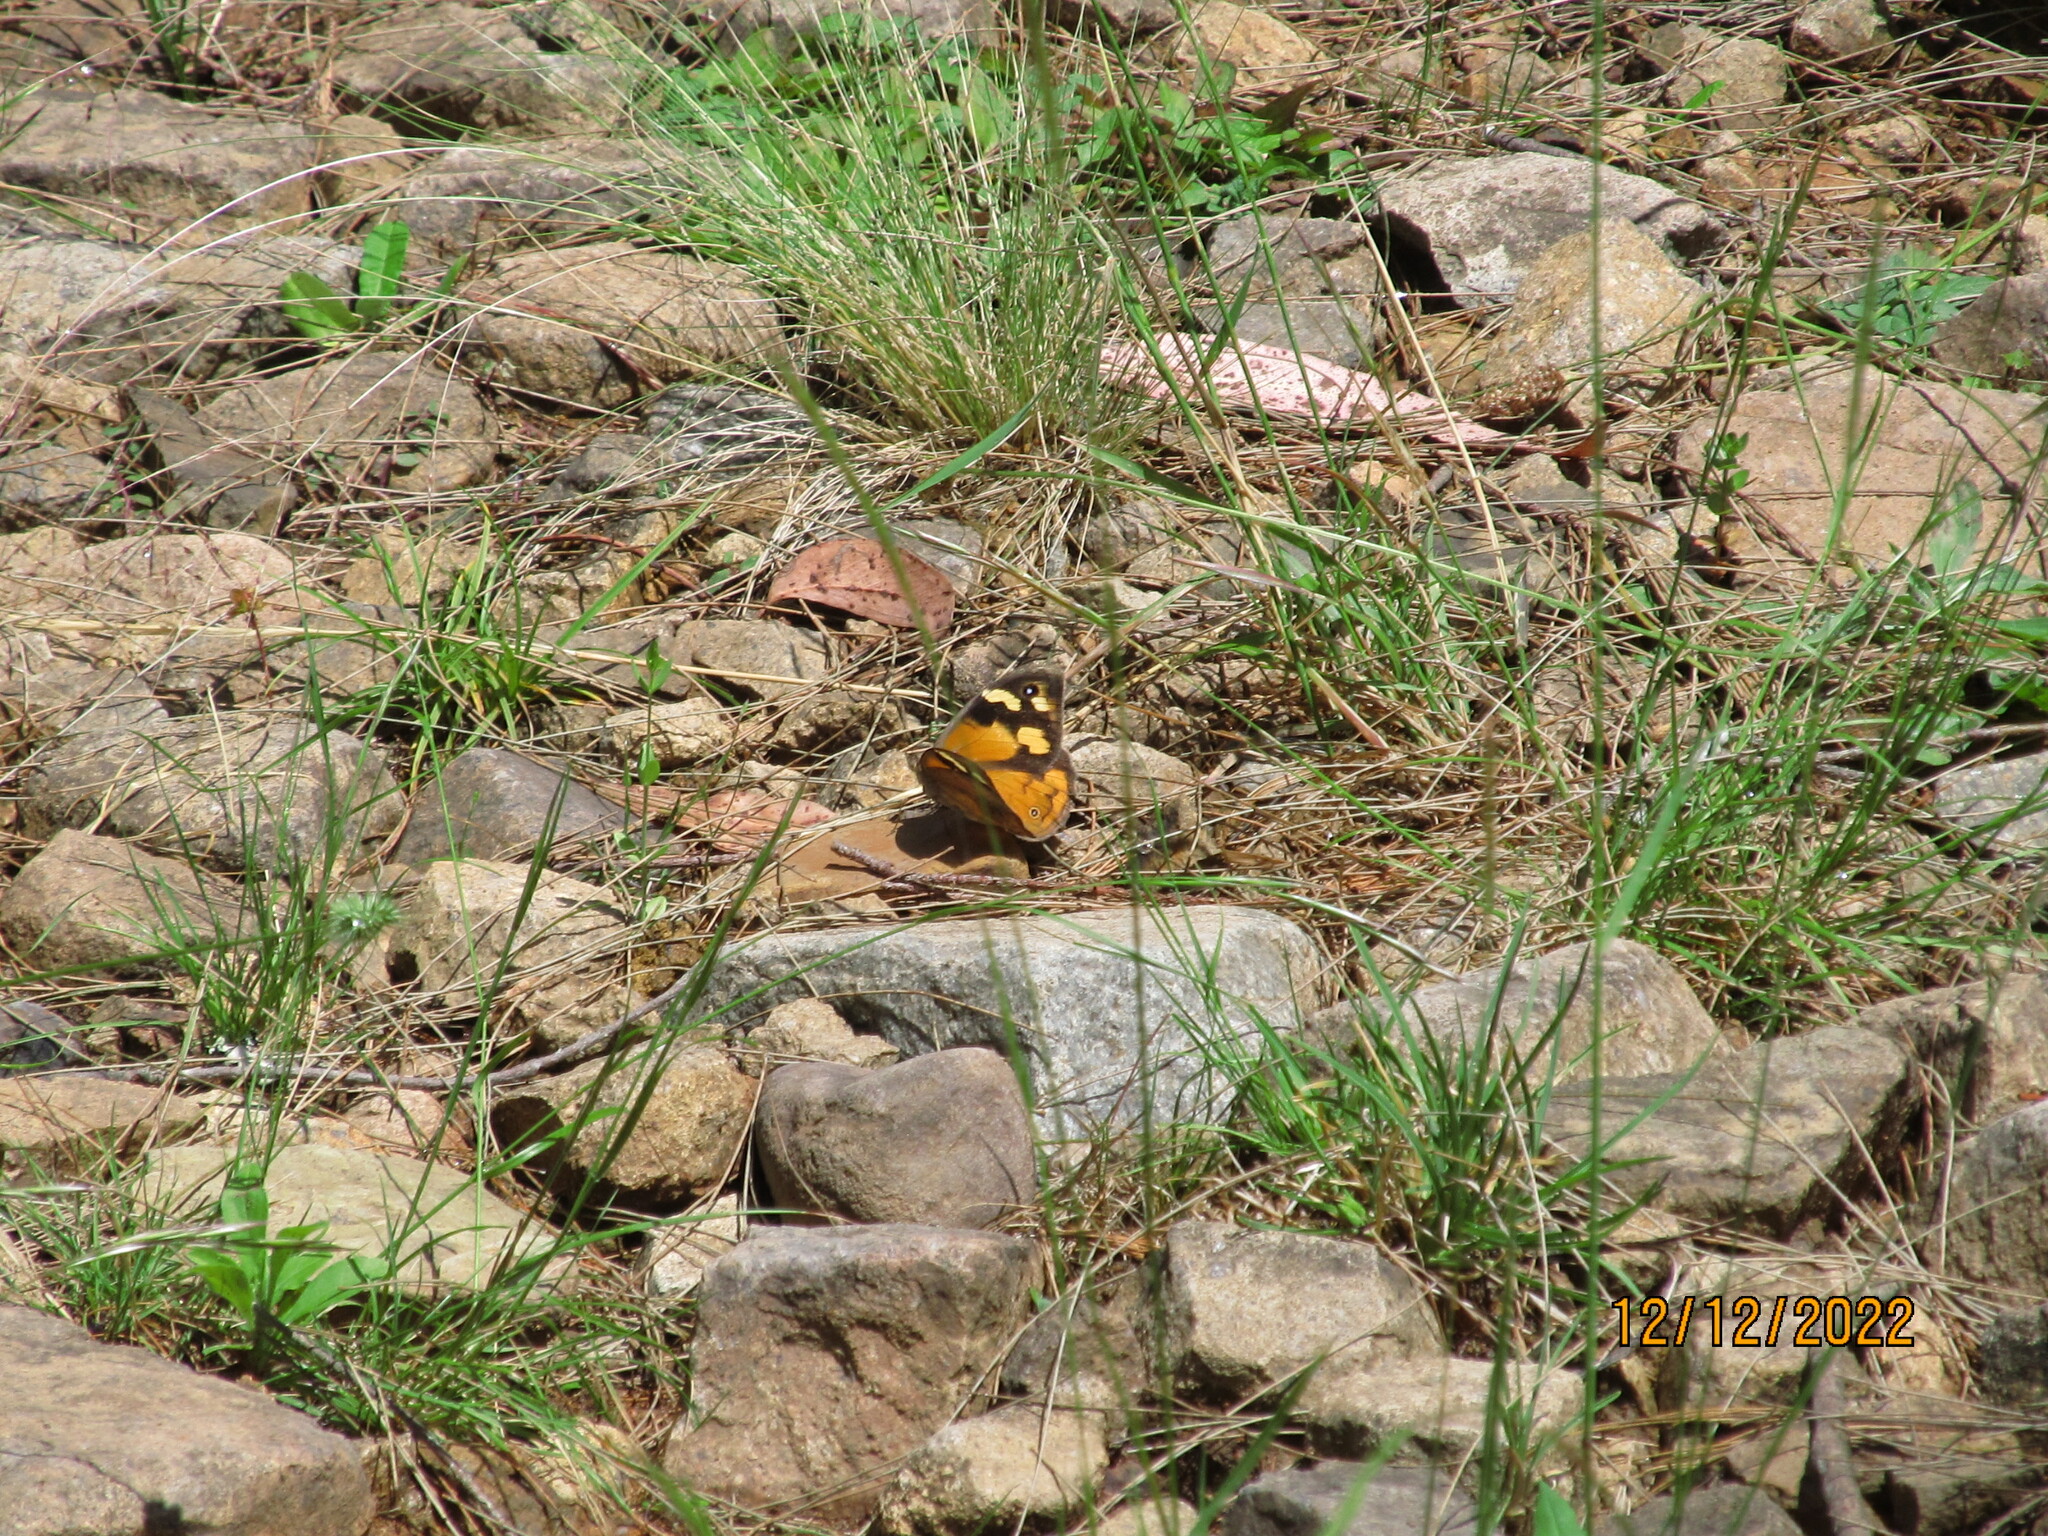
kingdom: Animalia
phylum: Arthropoda
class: Insecta
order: Lepidoptera
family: Nymphalidae
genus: Heteronympha
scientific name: Heteronympha merope
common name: Common brown
